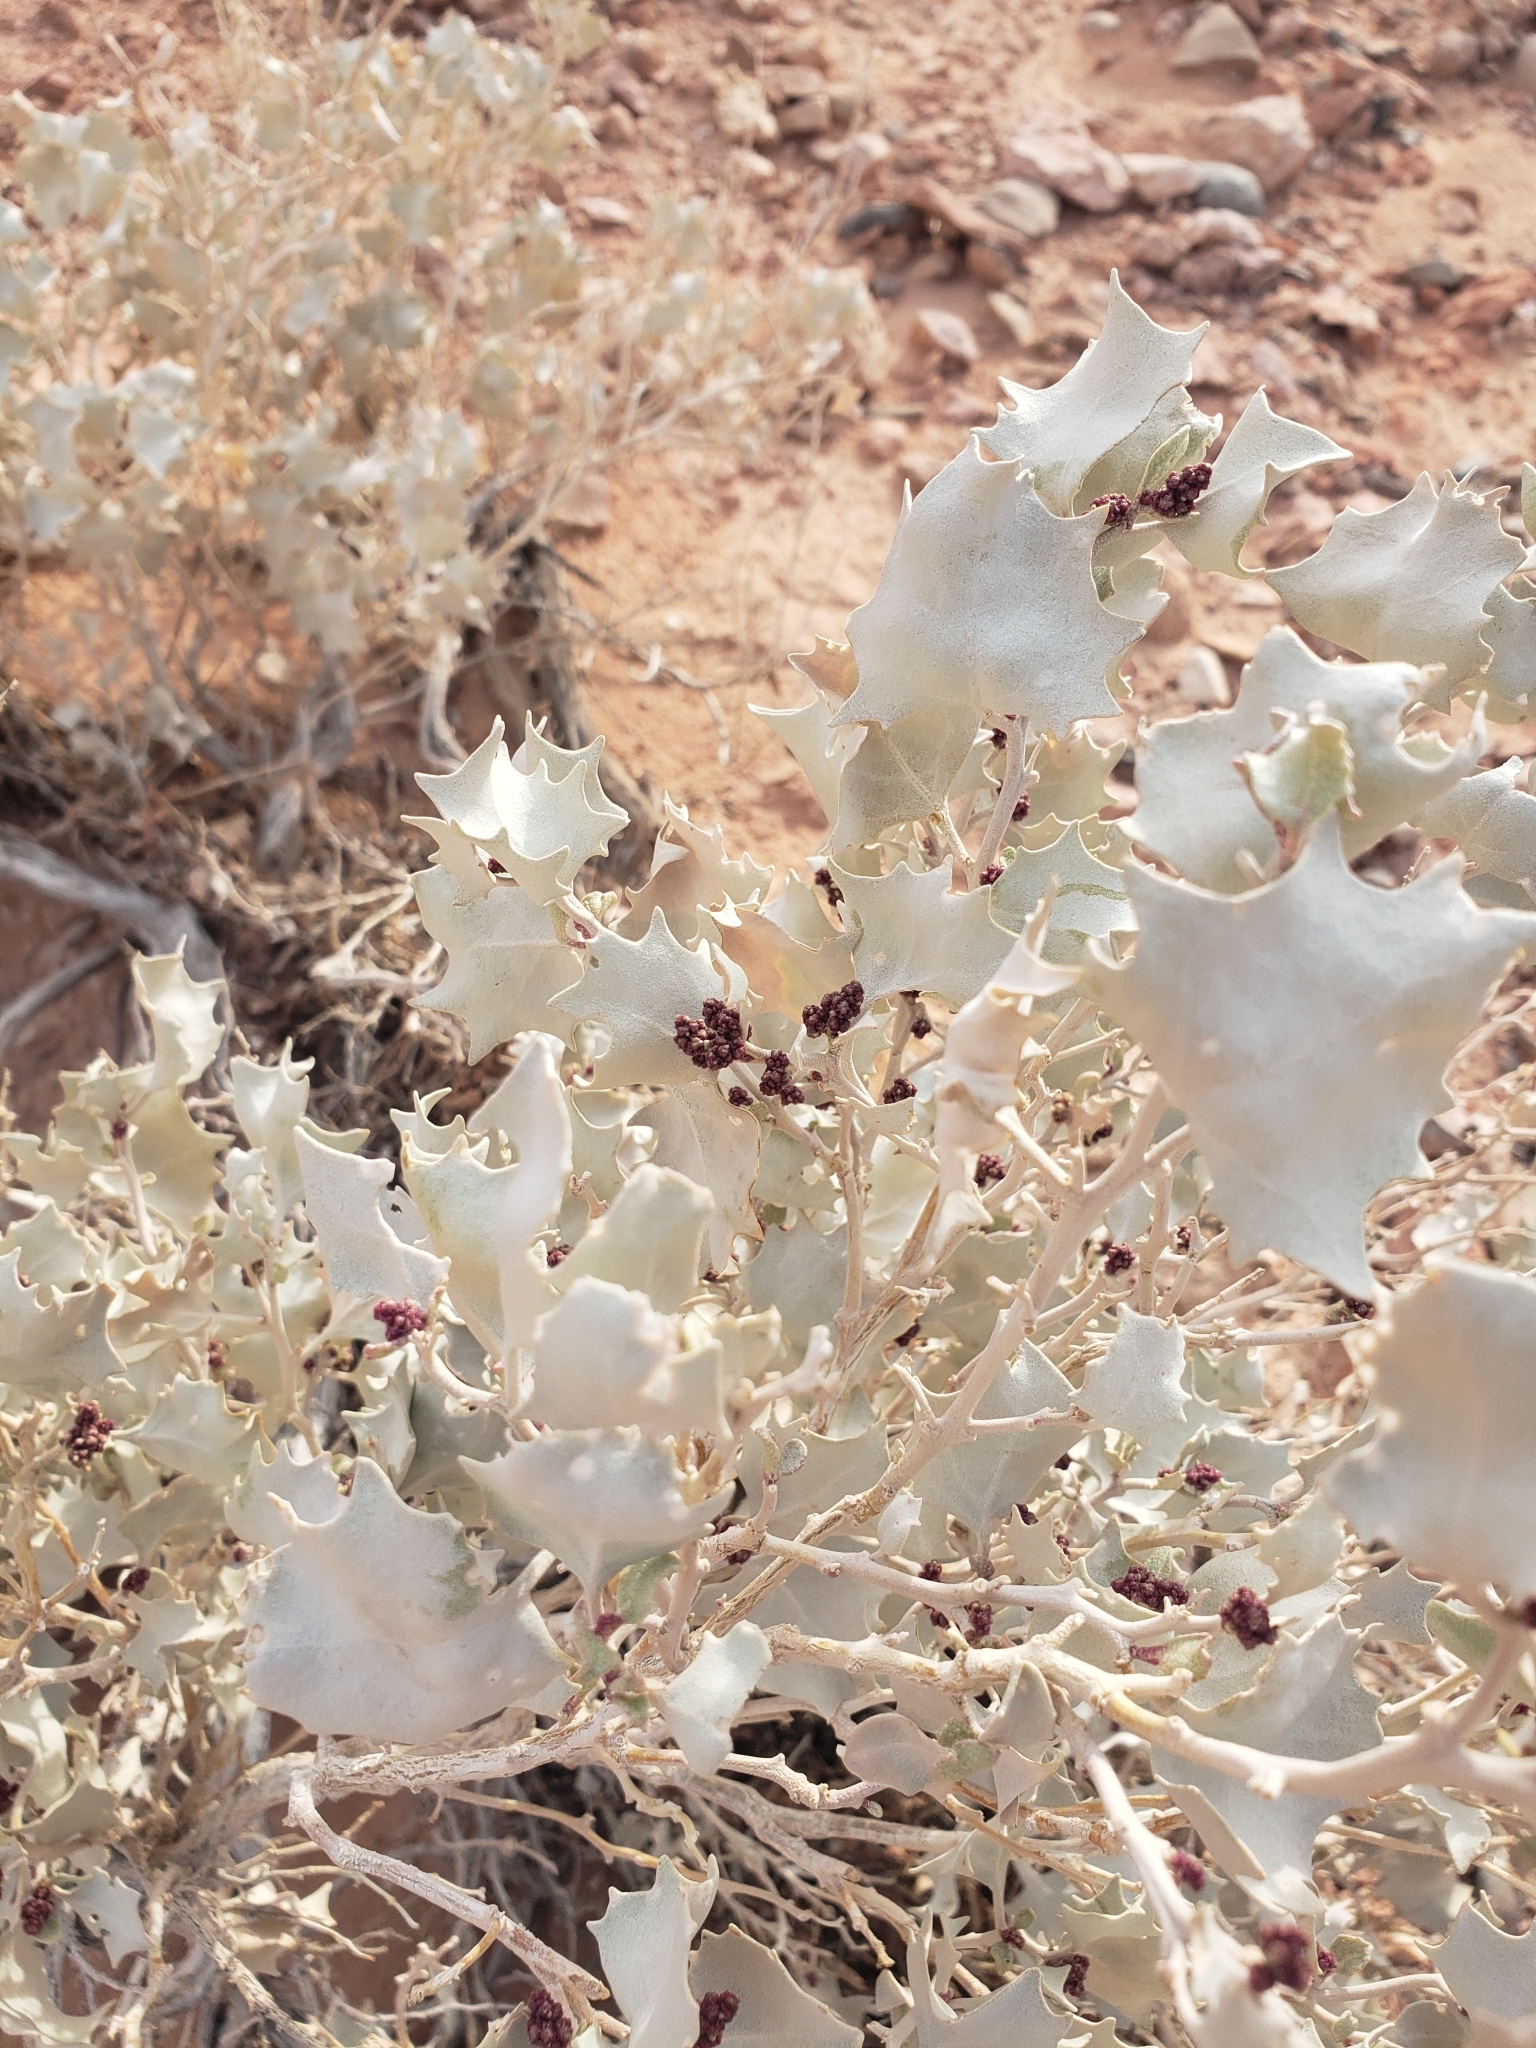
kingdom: Plantae
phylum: Tracheophyta
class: Magnoliopsida
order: Caryophyllales
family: Amaranthaceae
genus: Atriplex
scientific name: Atriplex hymenelytra
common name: Desert-holly
